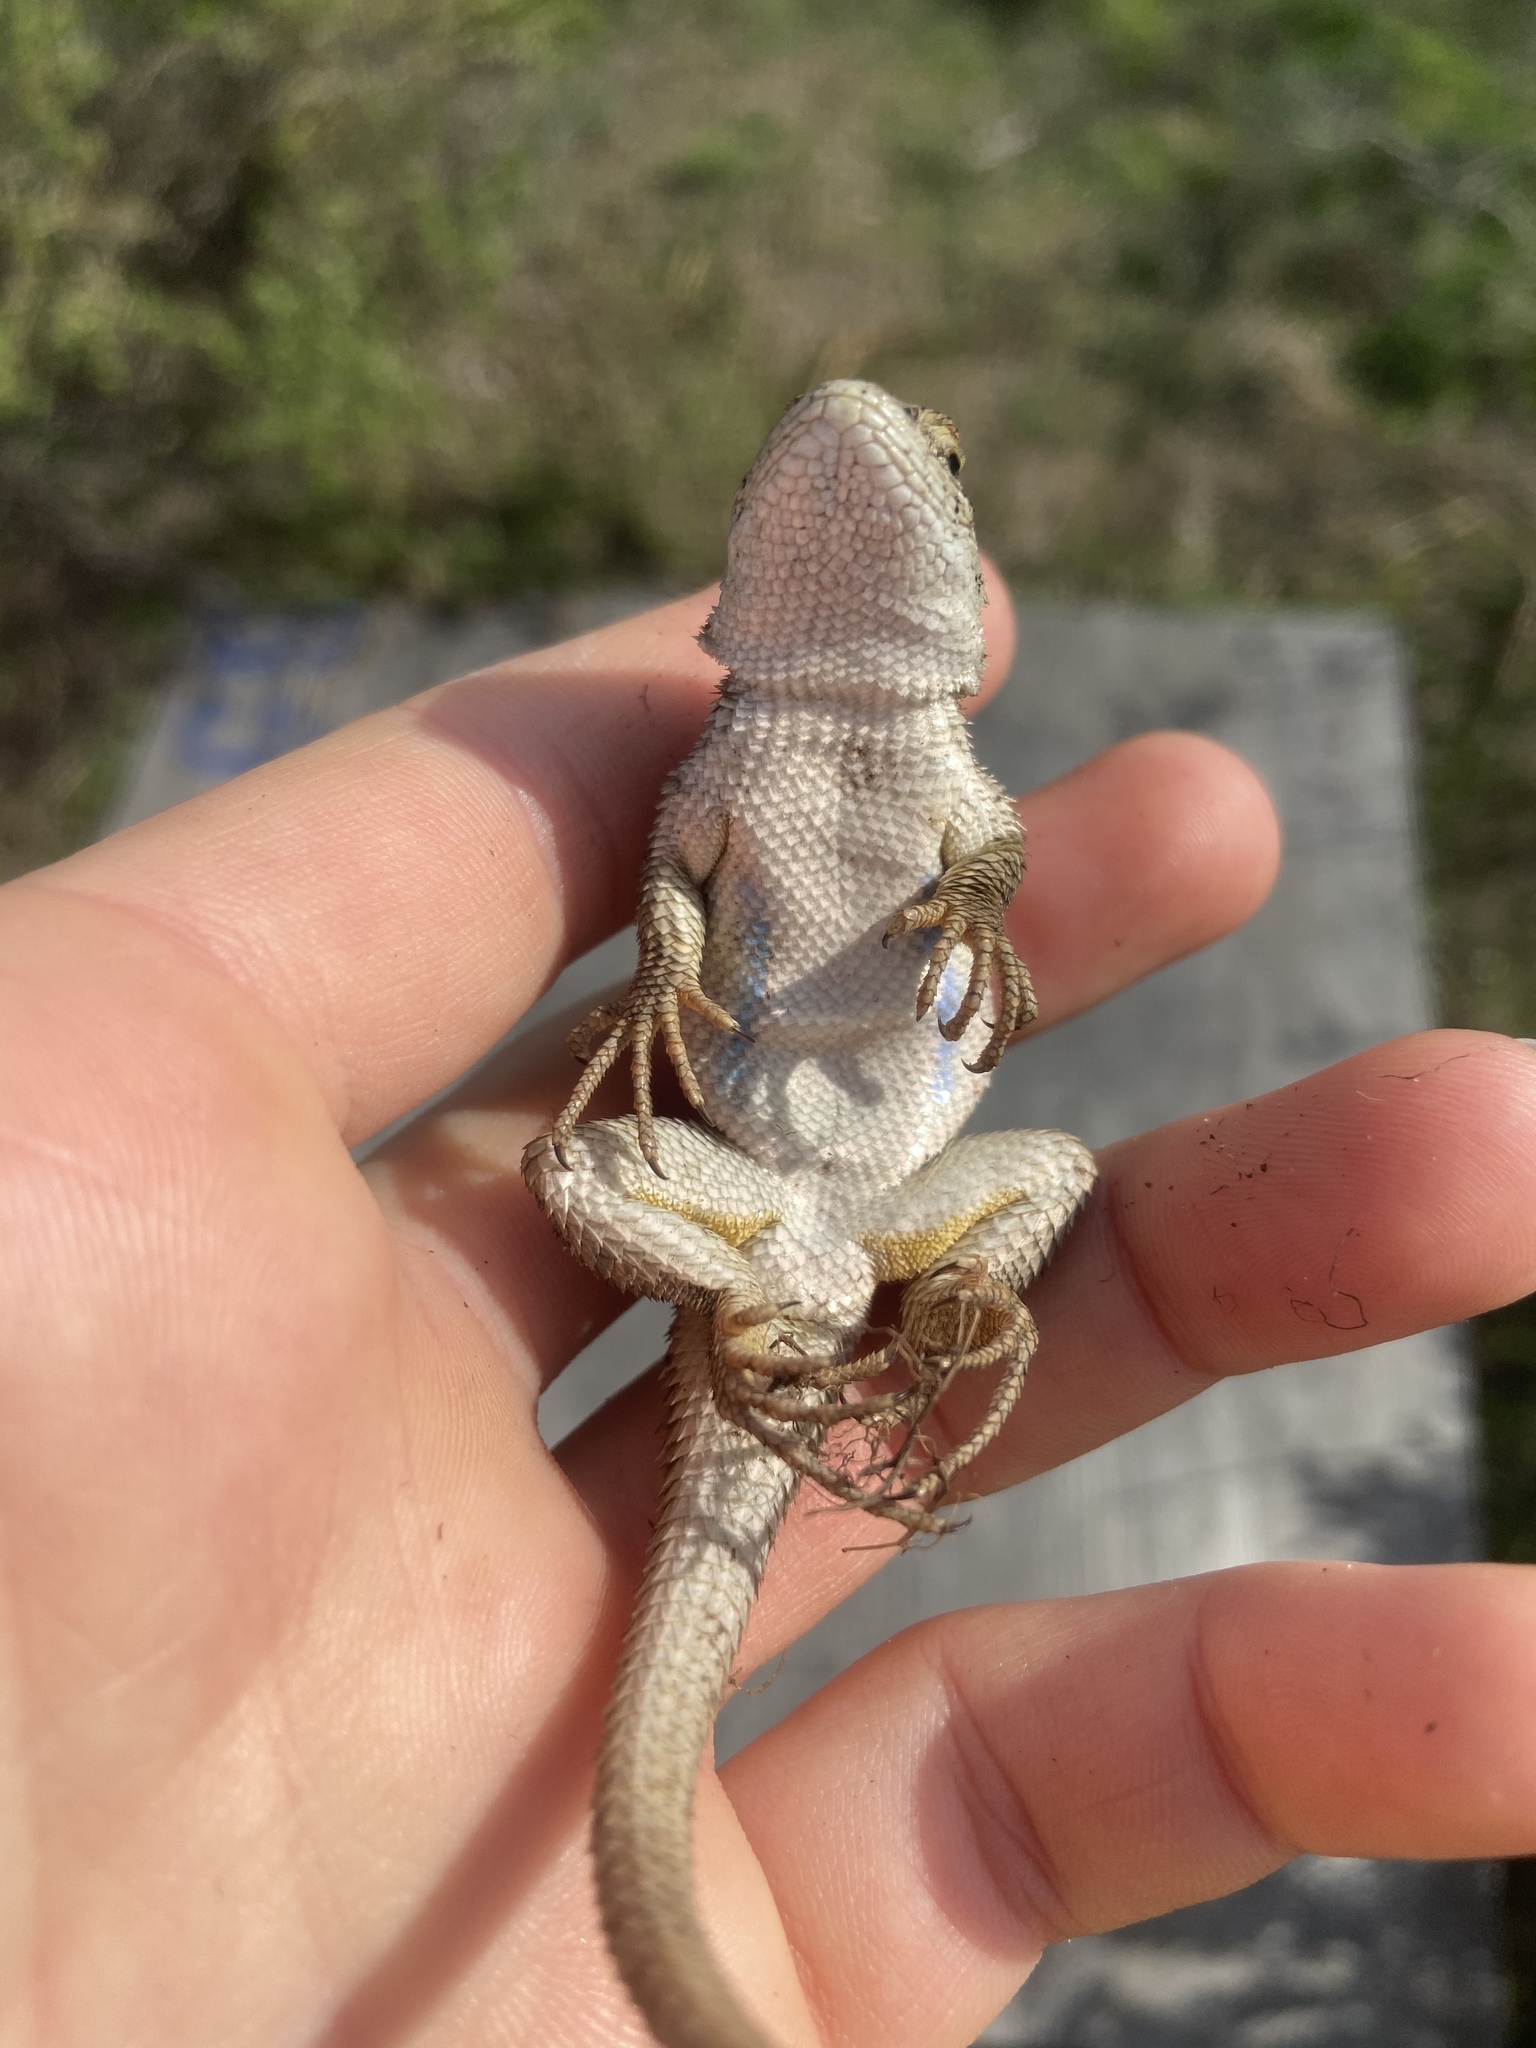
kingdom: Animalia
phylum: Chordata
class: Squamata
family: Phrynosomatidae
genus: Sceloporus
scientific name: Sceloporus occidentalis
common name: Western fence lizard
